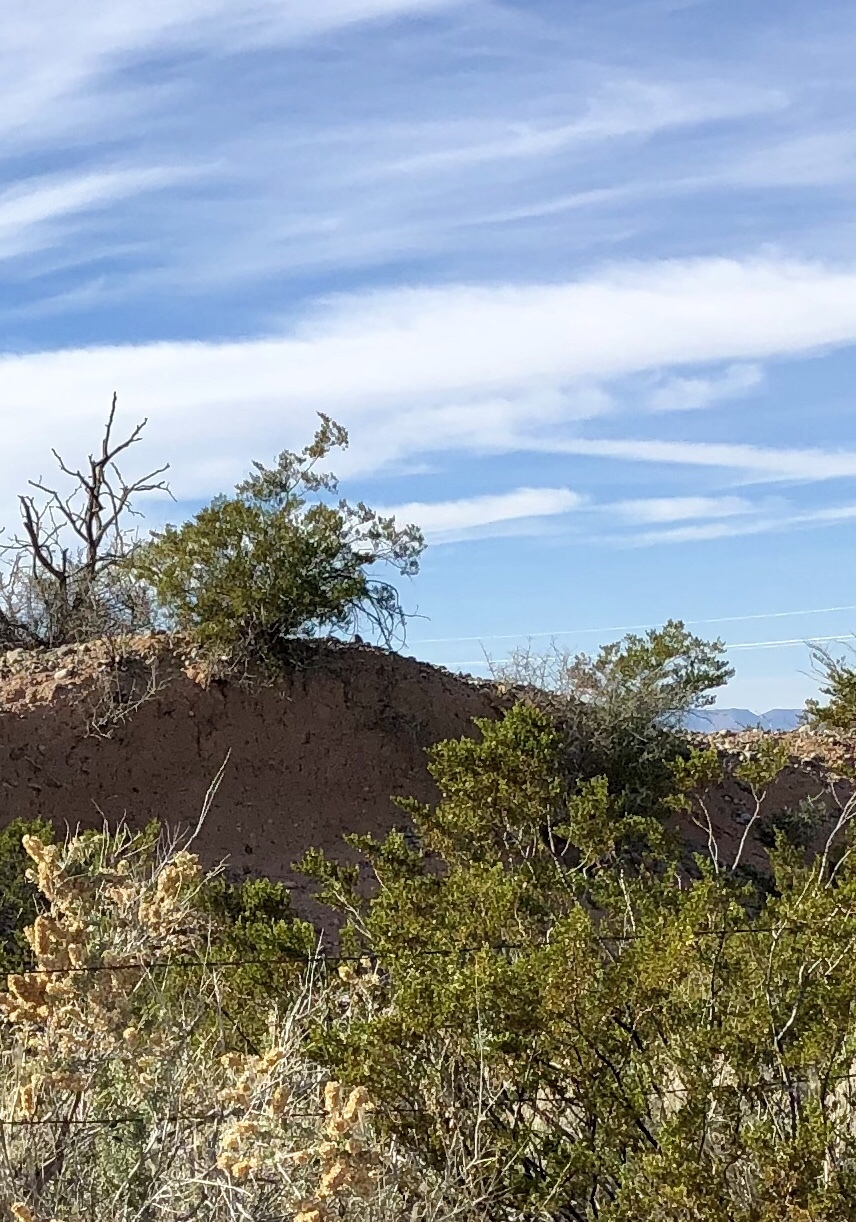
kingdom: Plantae
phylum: Tracheophyta
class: Magnoliopsida
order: Zygophyllales
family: Zygophyllaceae
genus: Larrea
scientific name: Larrea tridentata
